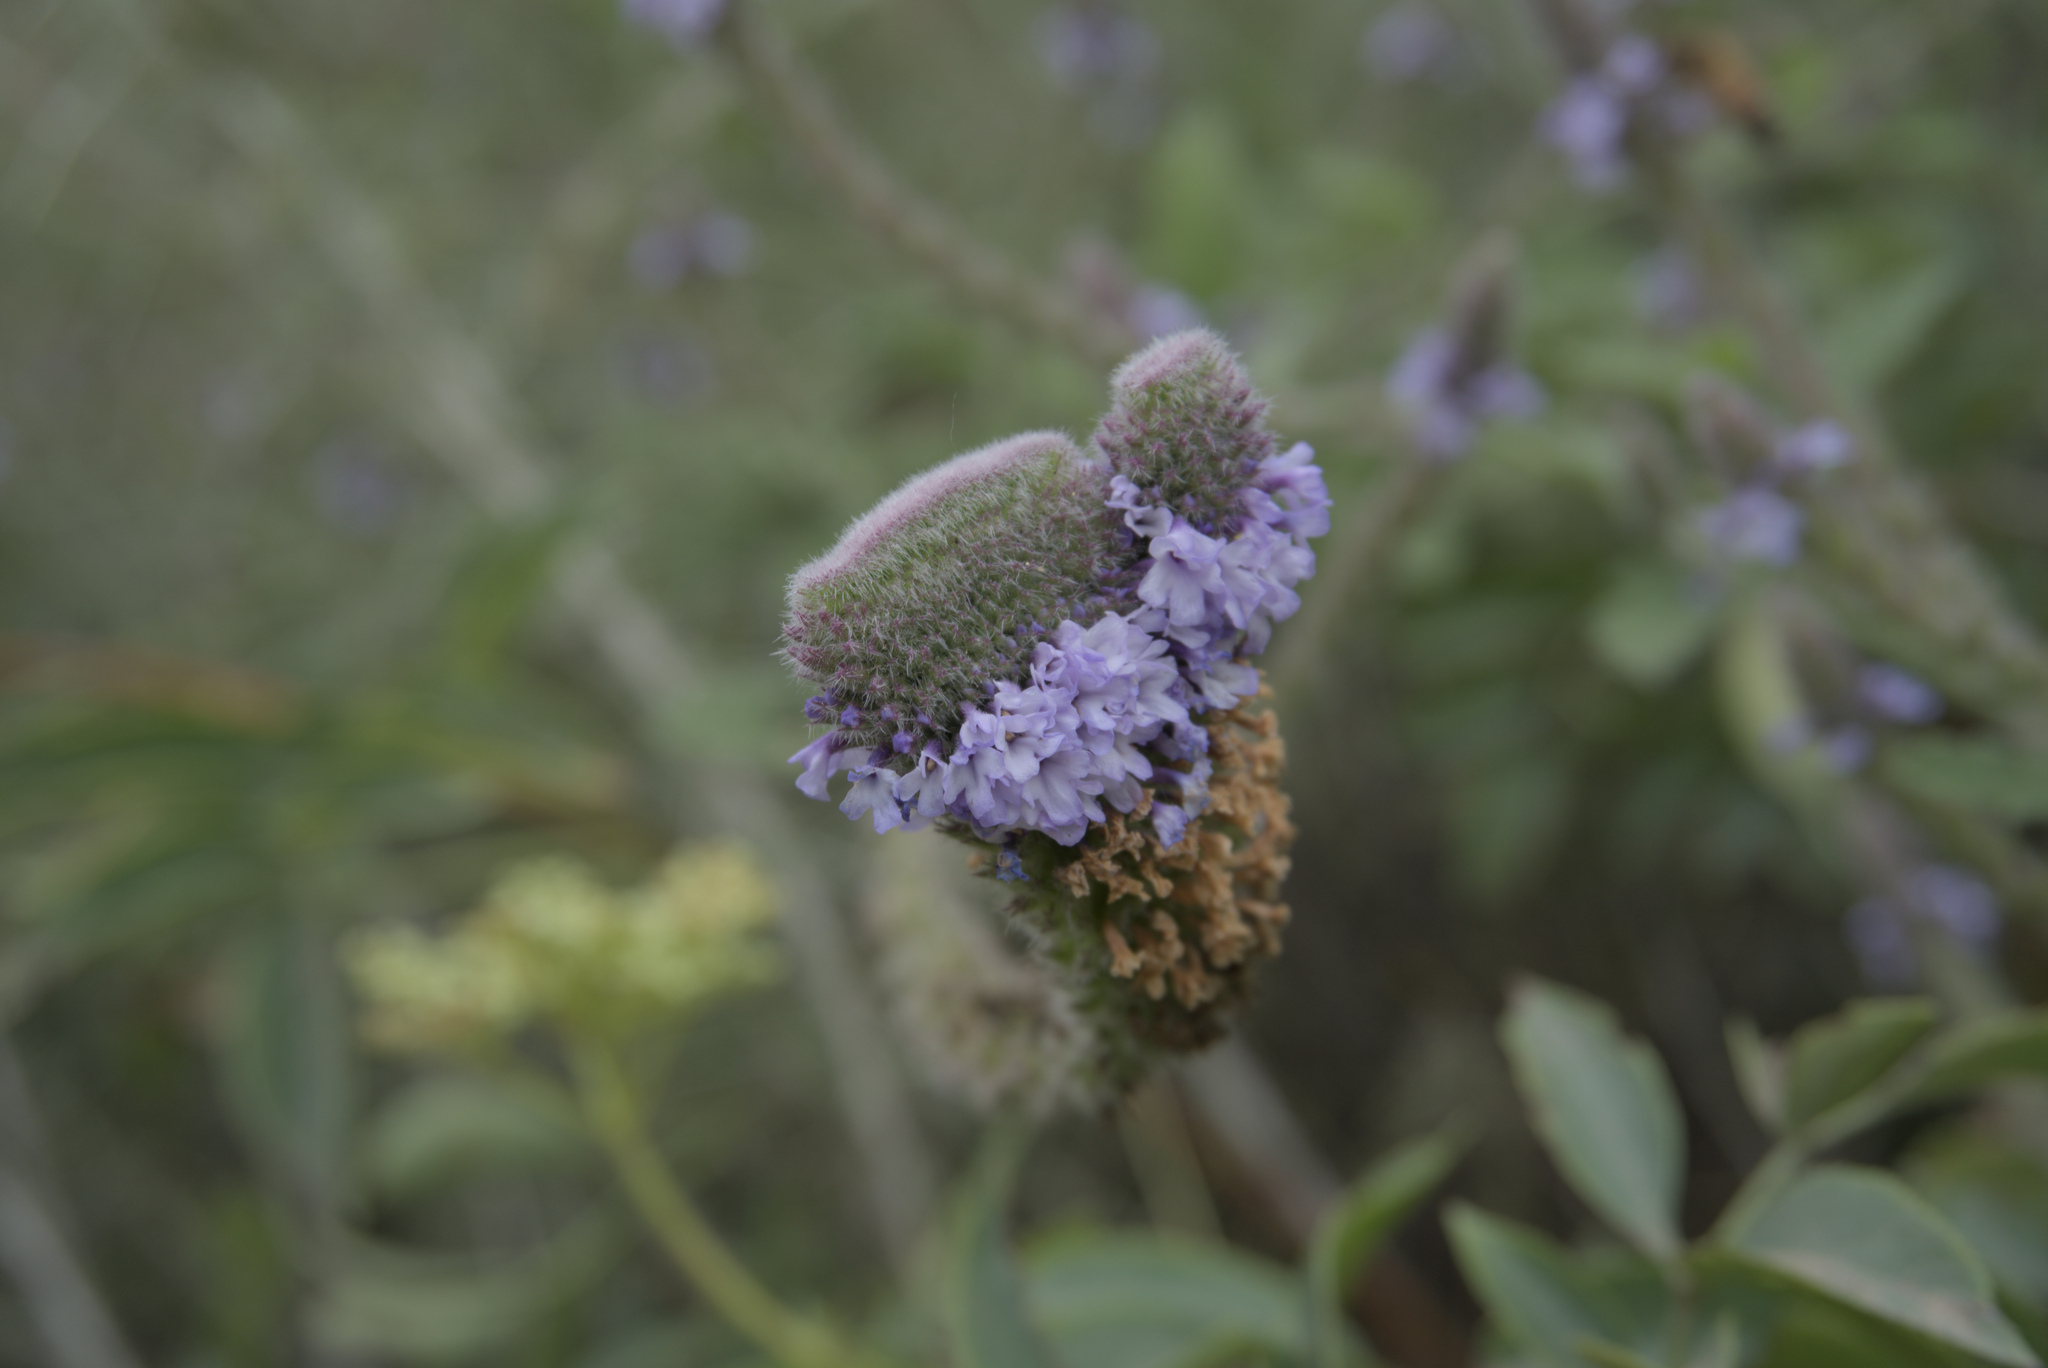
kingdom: Plantae
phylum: Tracheophyta
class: Magnoliopsida
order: Lamiales
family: Verbenaceae
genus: Verbena
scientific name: Verbena lasiostachys
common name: Vervain
